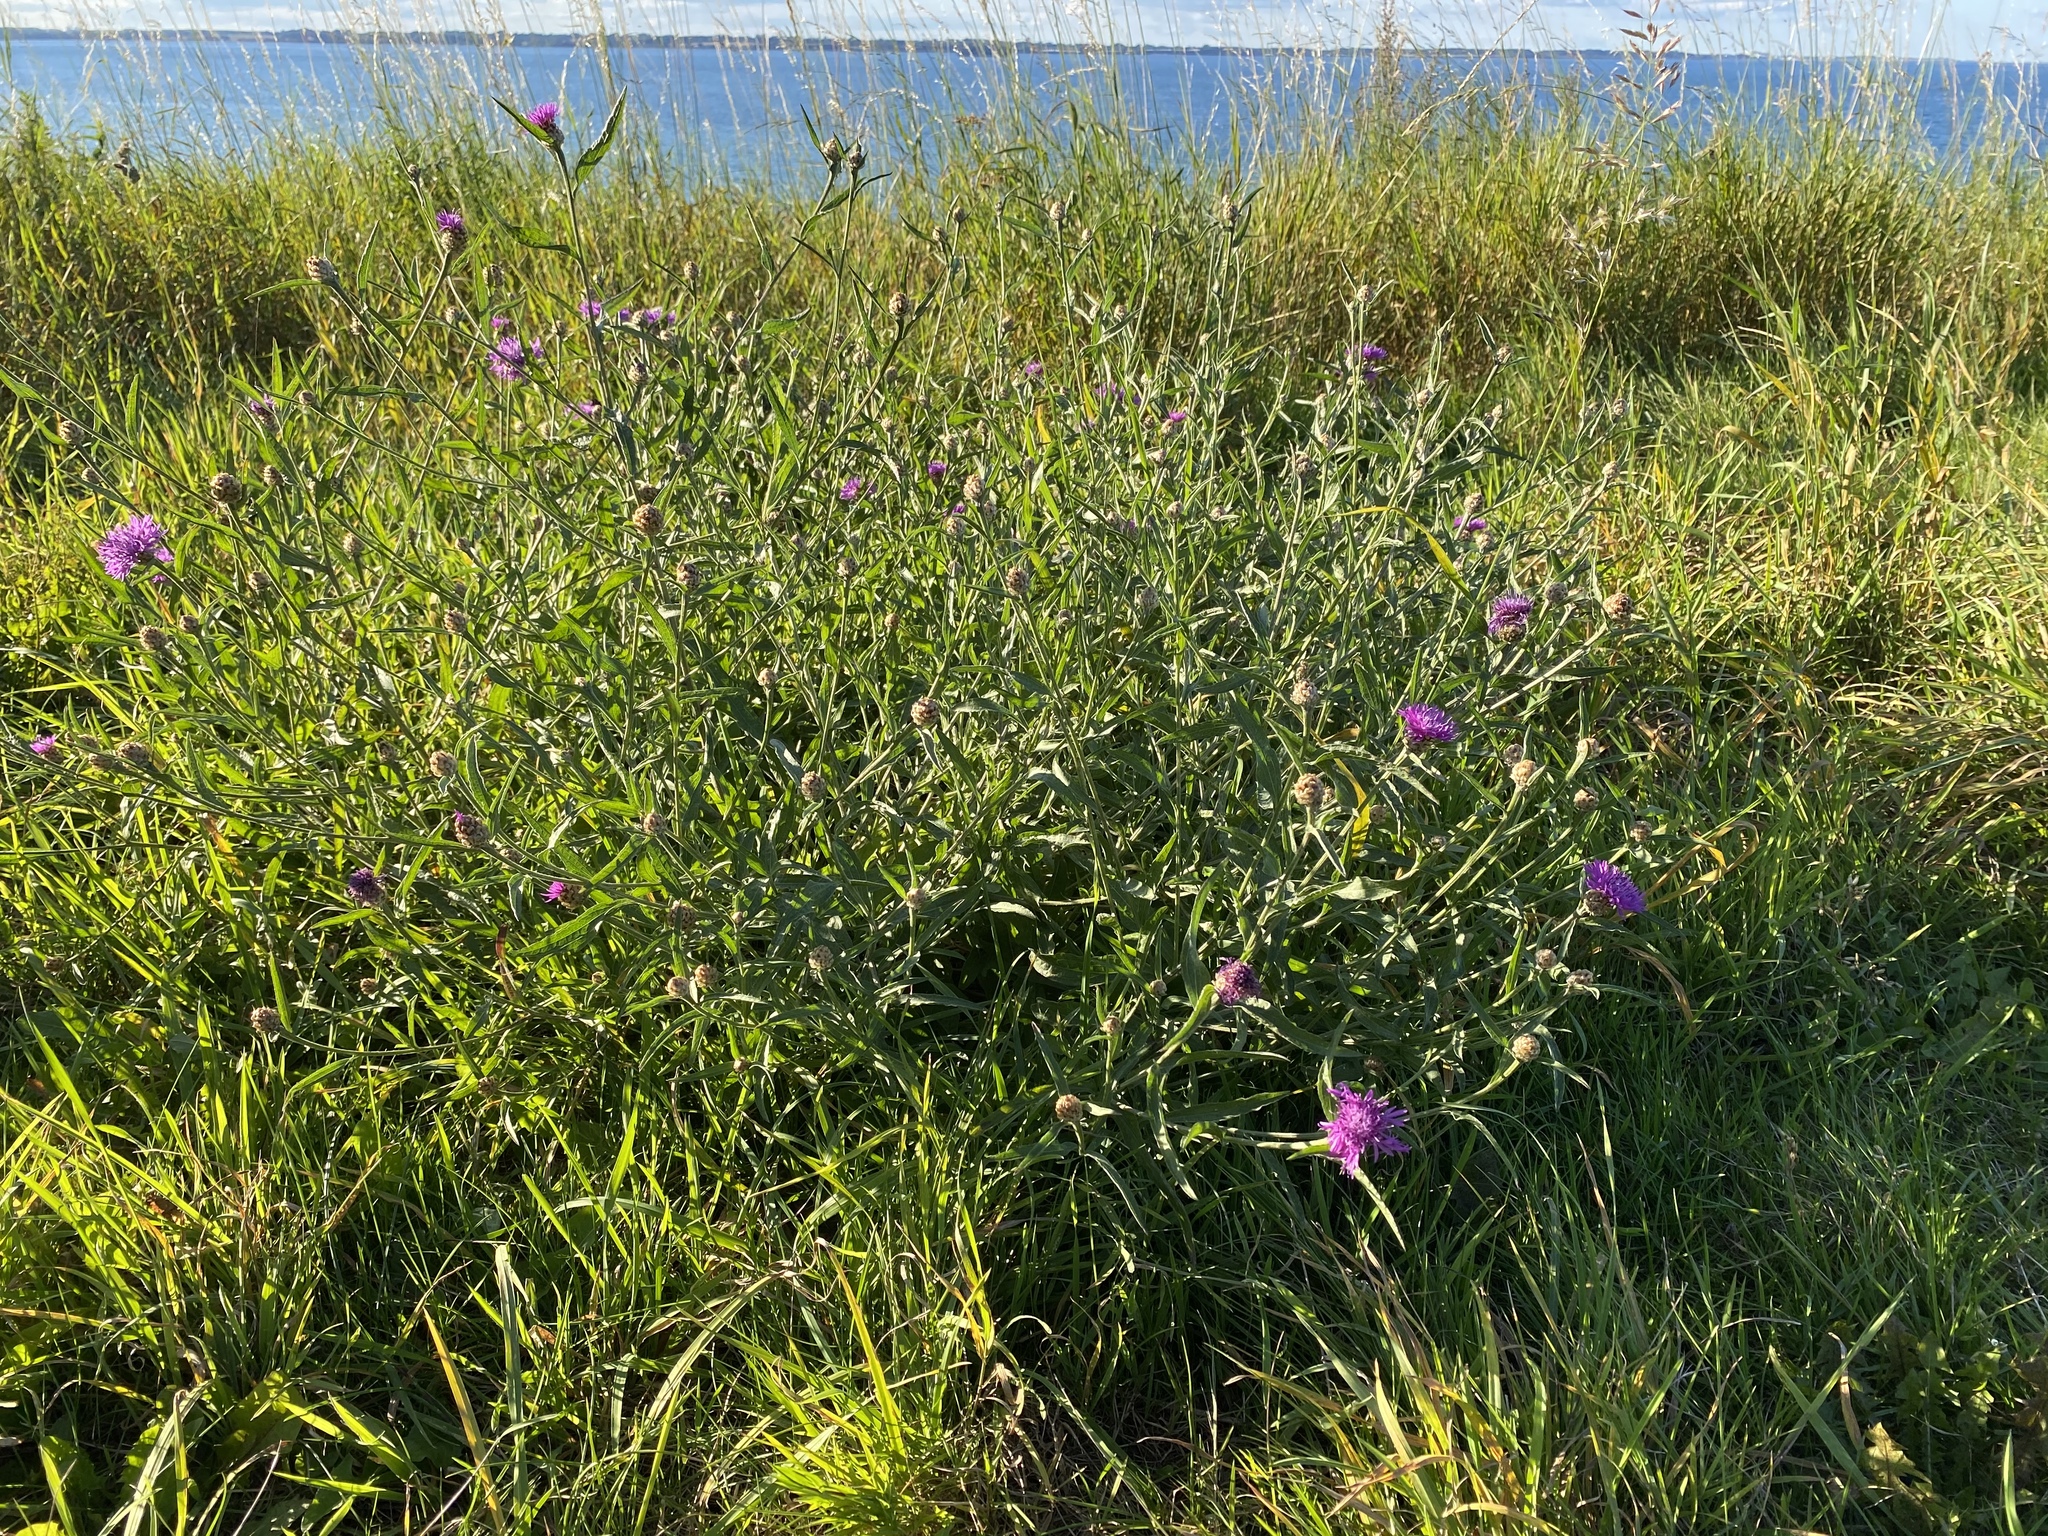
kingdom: Plantae
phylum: Tracheophyta
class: Magnoliopsida
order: Asterales
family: Asteraceae
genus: Centaurea
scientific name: Centaurea jacea
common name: Brown knapweed
